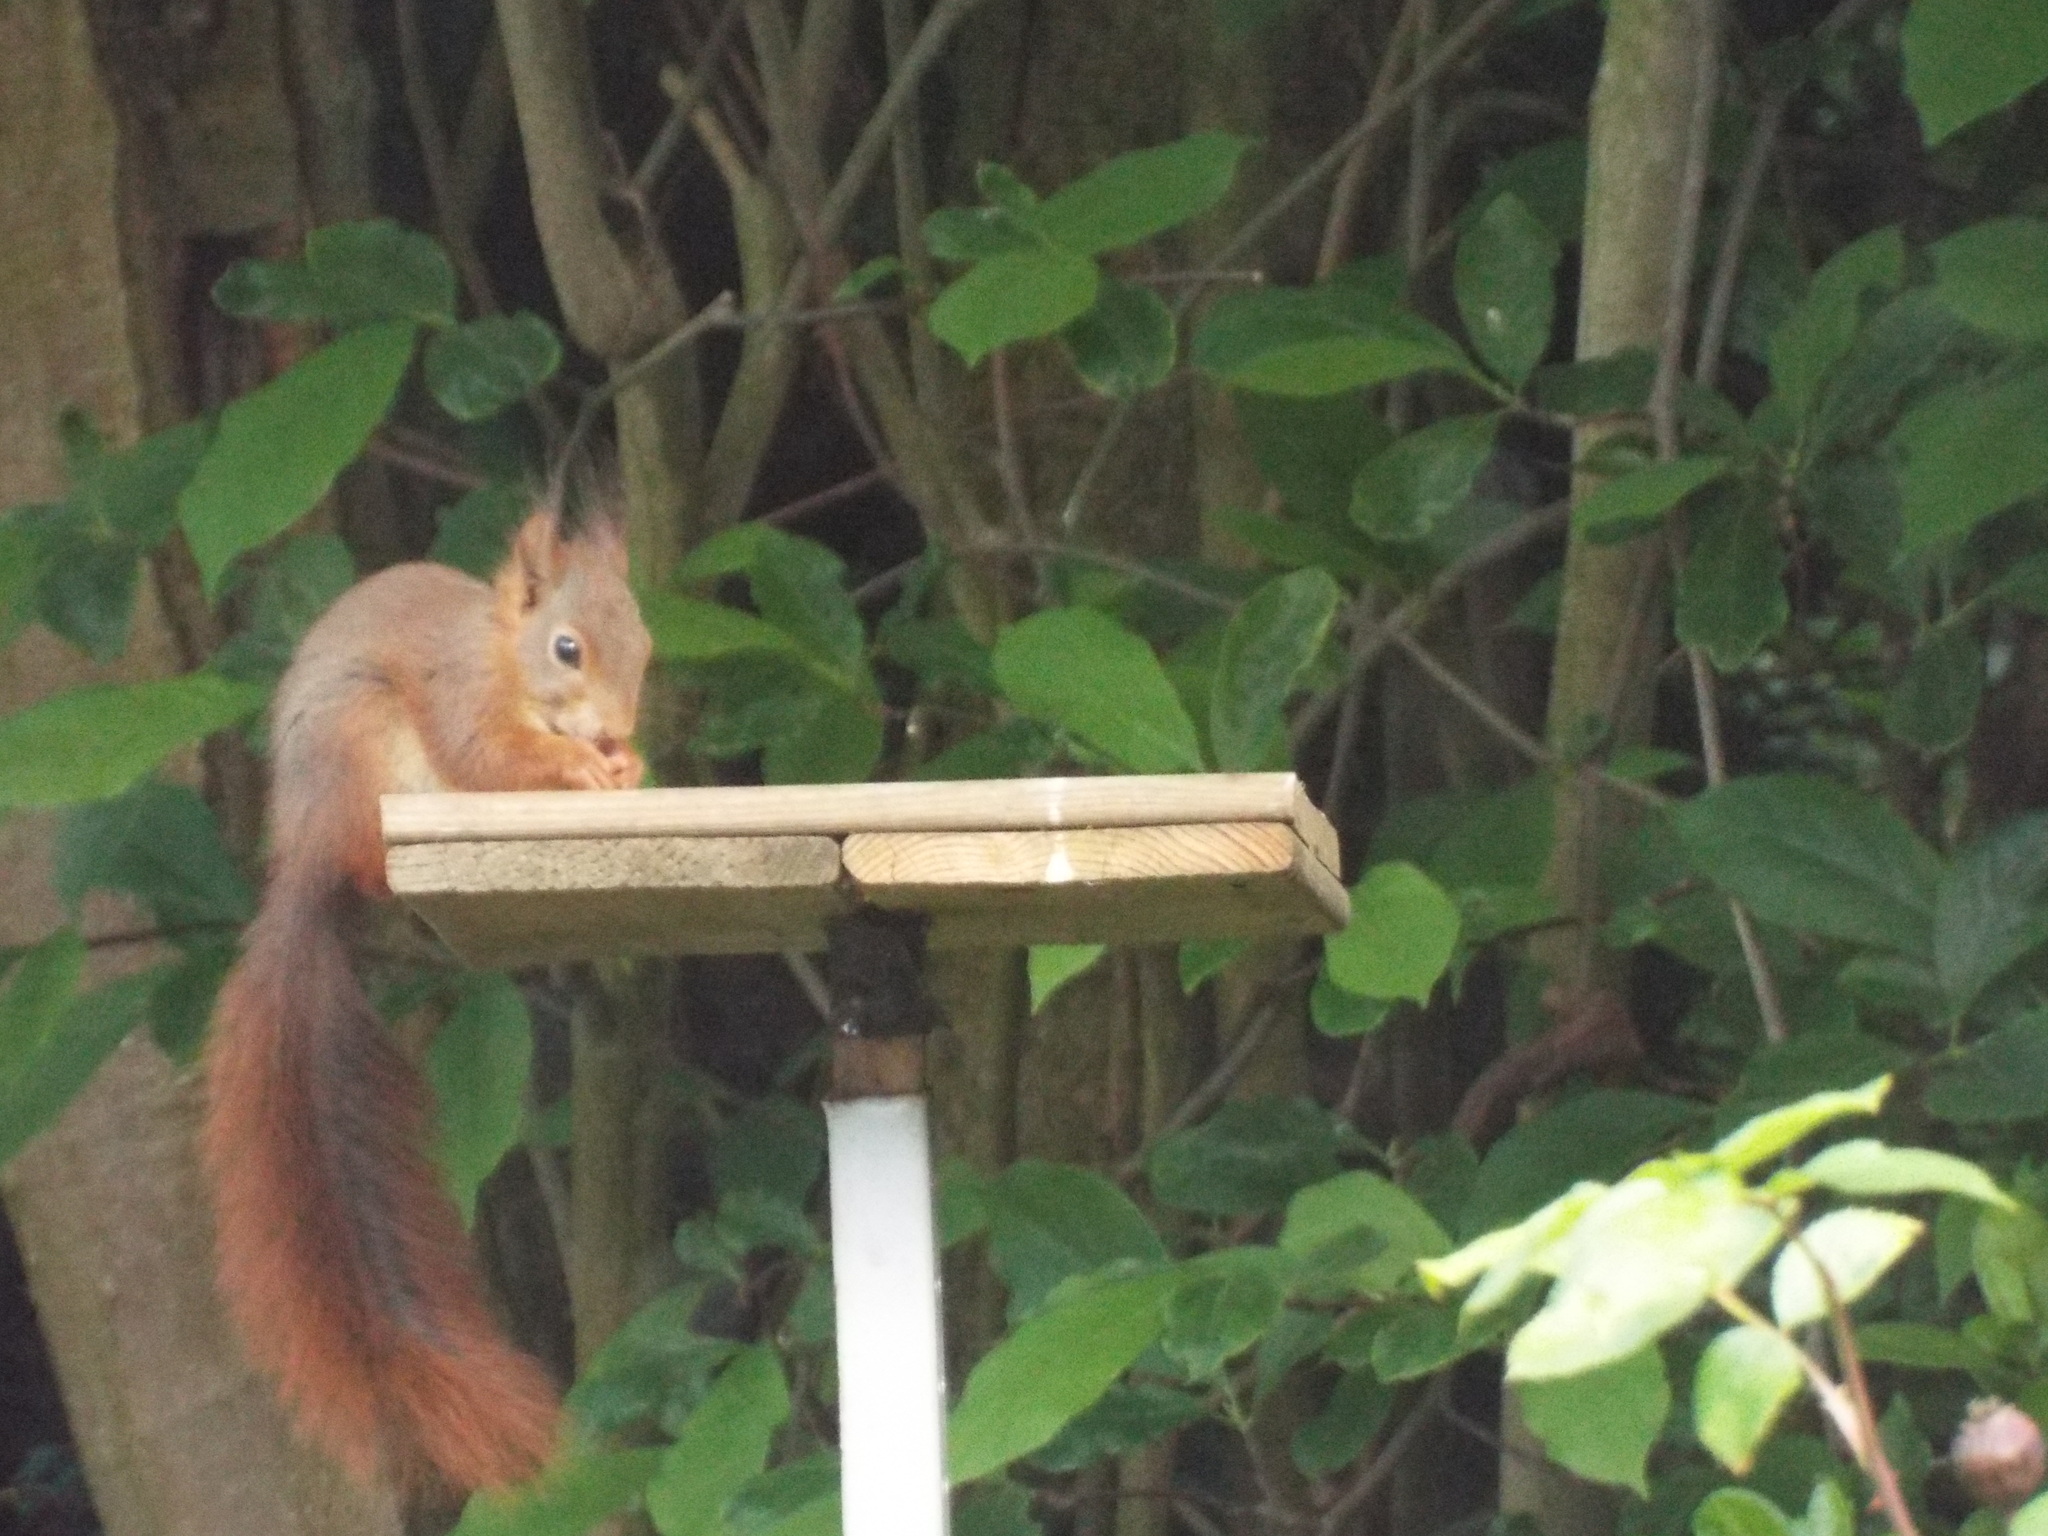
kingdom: Animalia
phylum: Chordata
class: Mammalia
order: Rodentia
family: Sciuridae
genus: Sciurus
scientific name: Sciurus vulgaris
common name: Eurasian red squirrel
